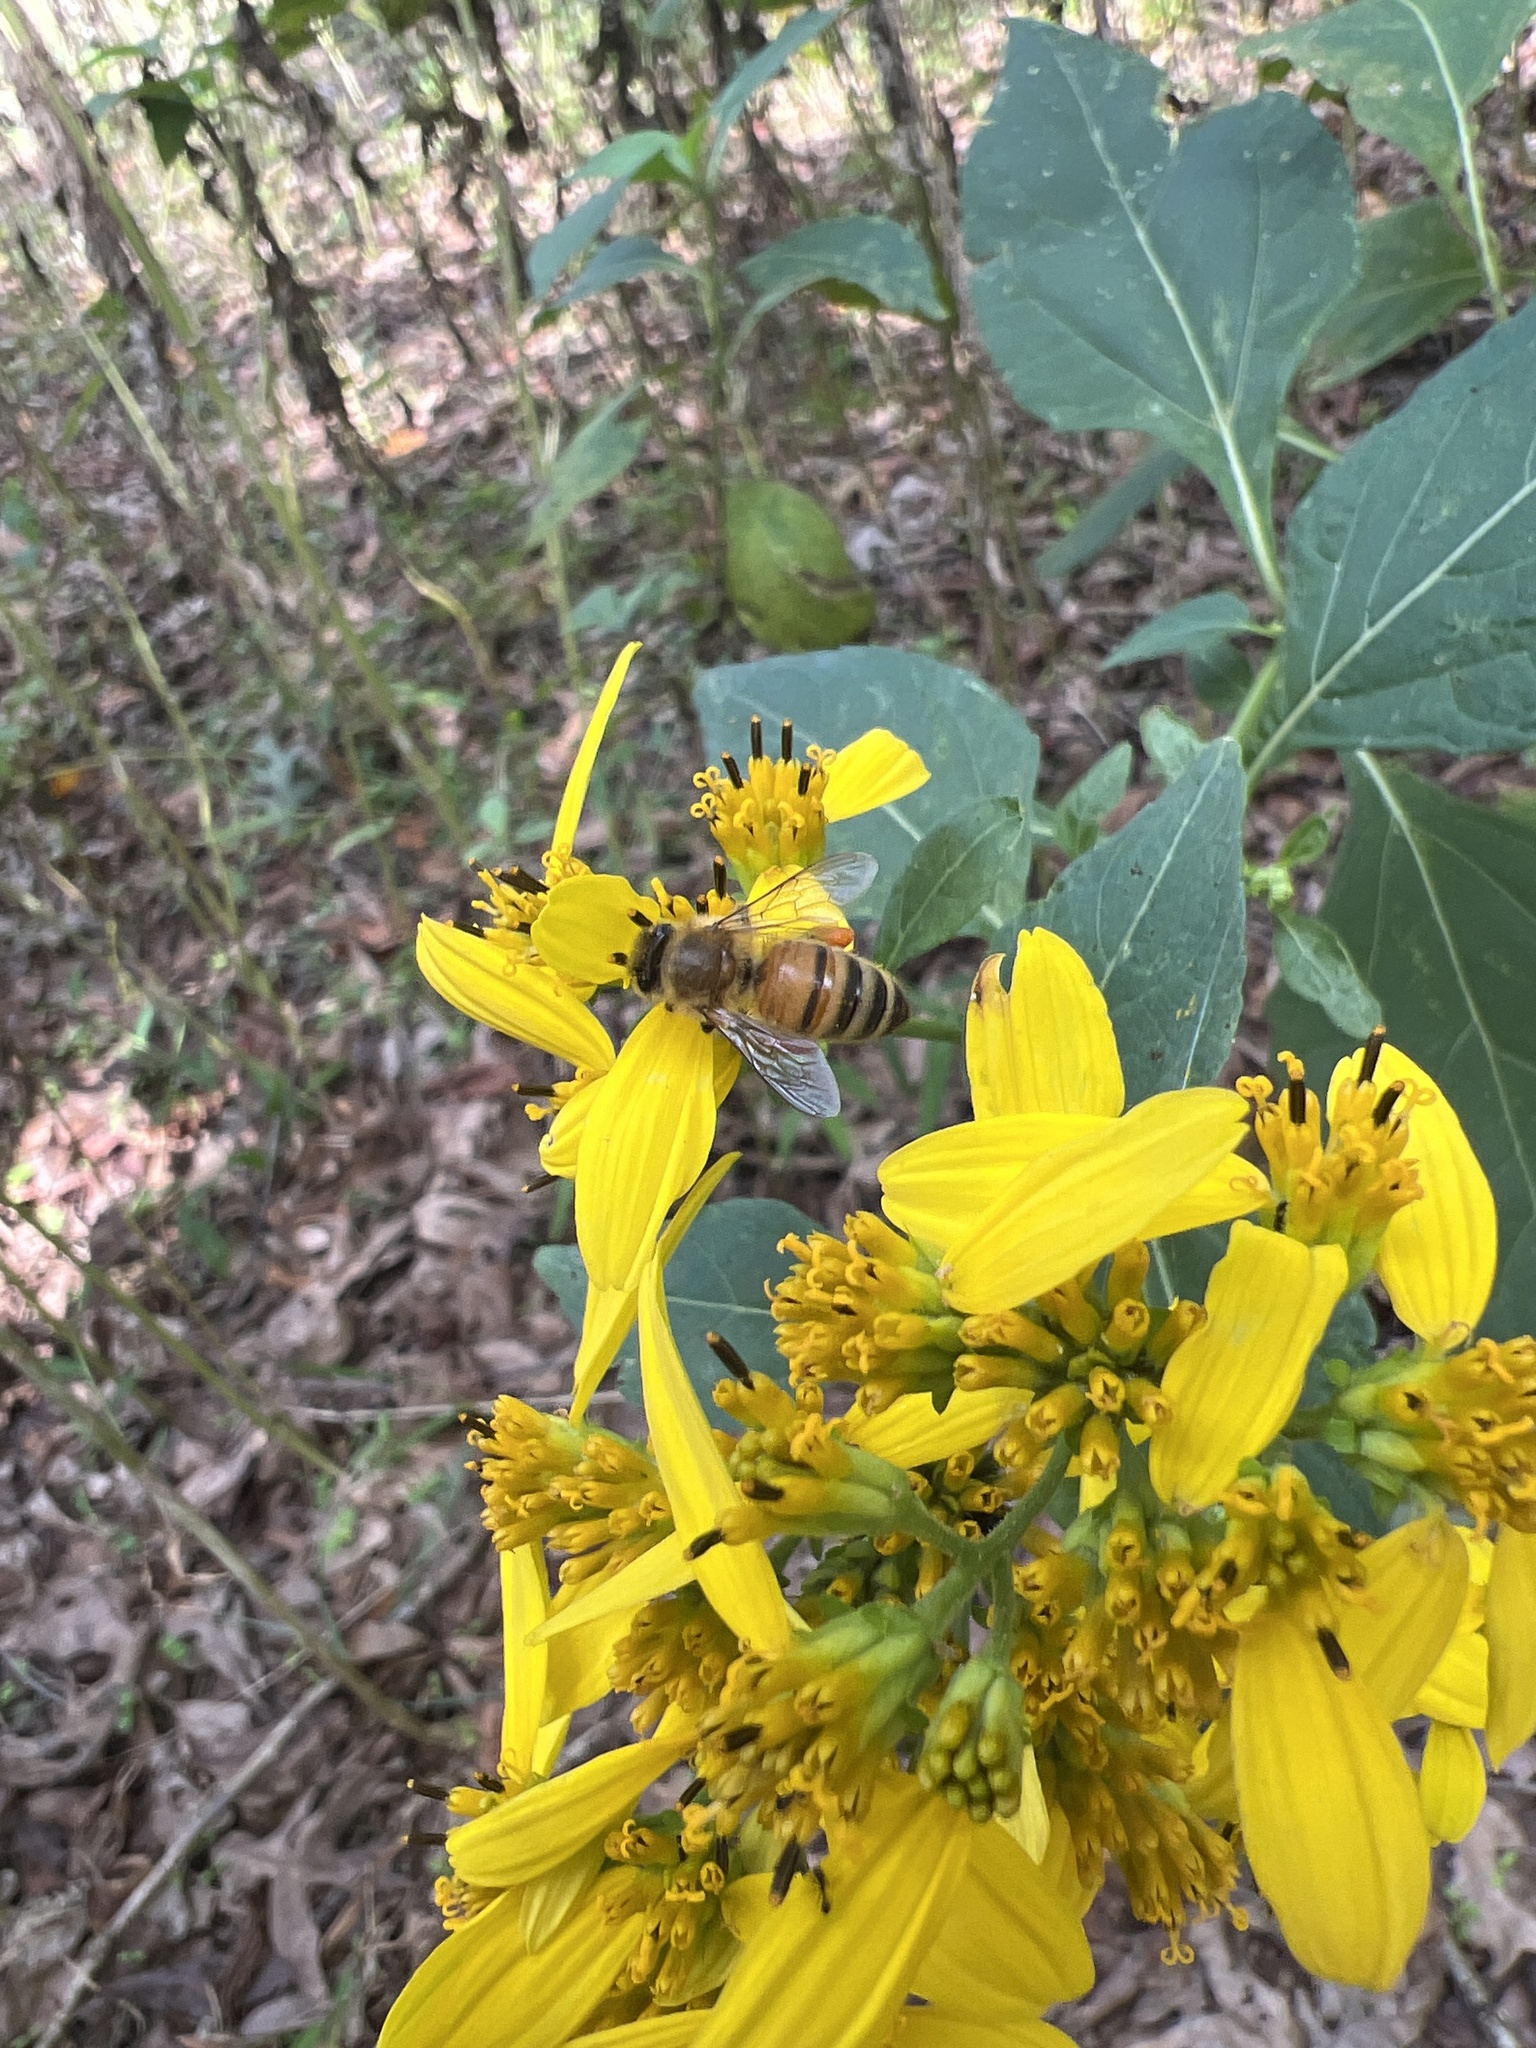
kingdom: Animalia
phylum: Arthropoda
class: Insecta
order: Hymenoptera
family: Apidae
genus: Apis
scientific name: Apis mellifera
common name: Honey bee
